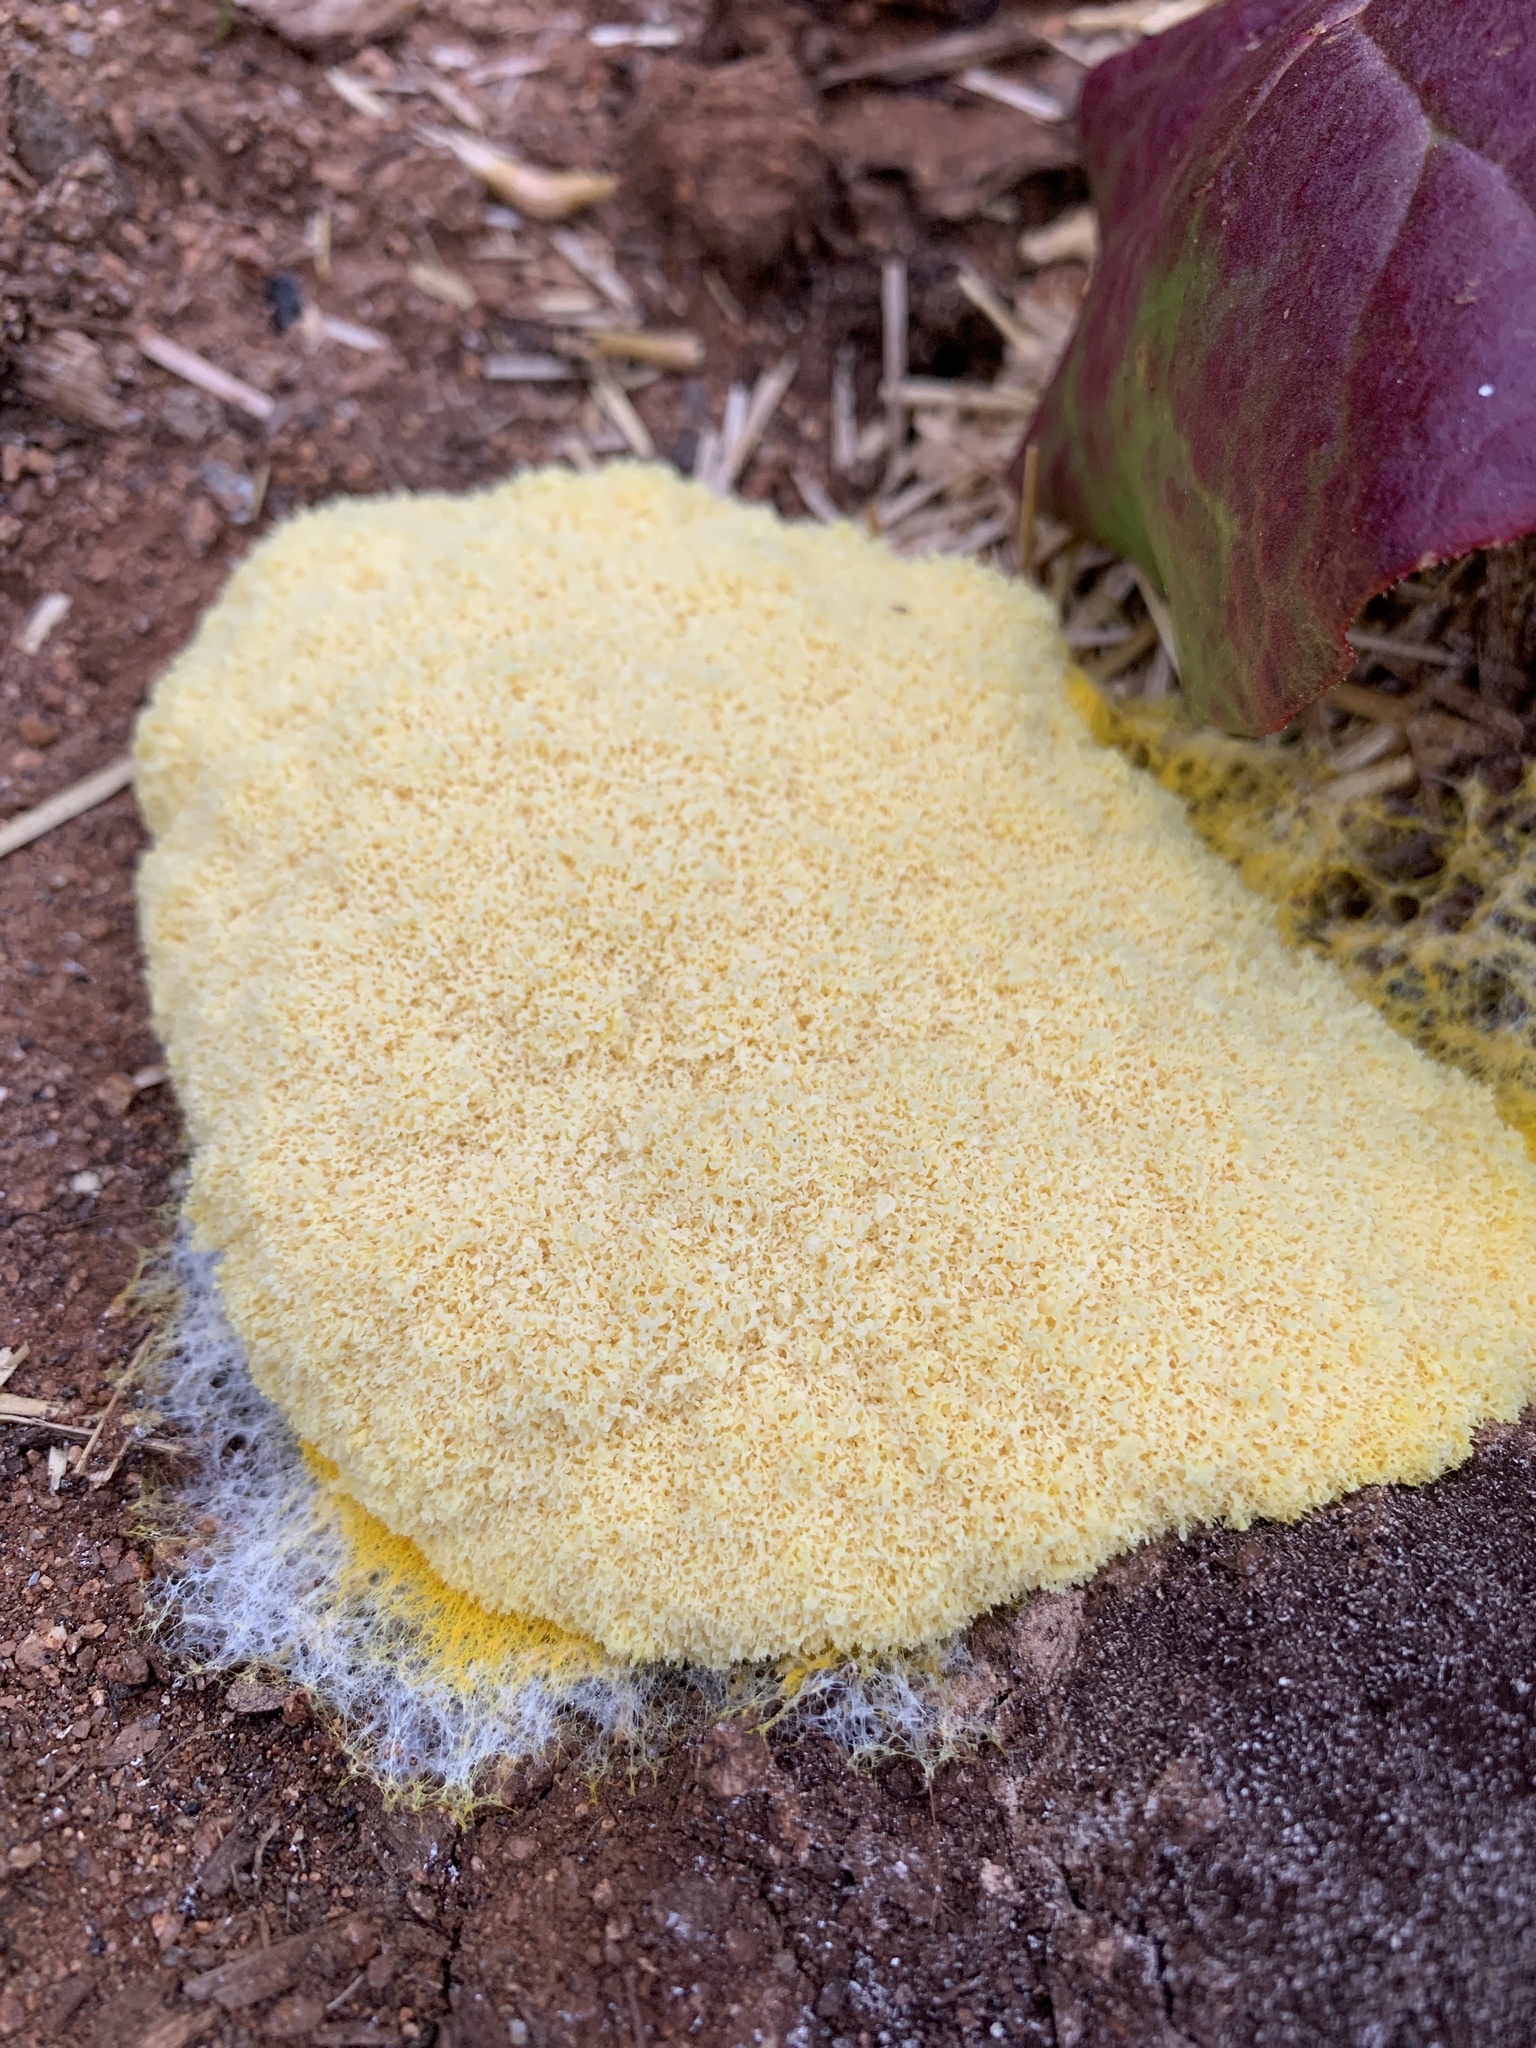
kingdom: Protozoa
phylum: Mycetozoa
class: Myxomycetes
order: Physarales
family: Physaraceae
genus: Fuligo
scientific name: Fuligo septica
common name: Dog vomit slime mold
